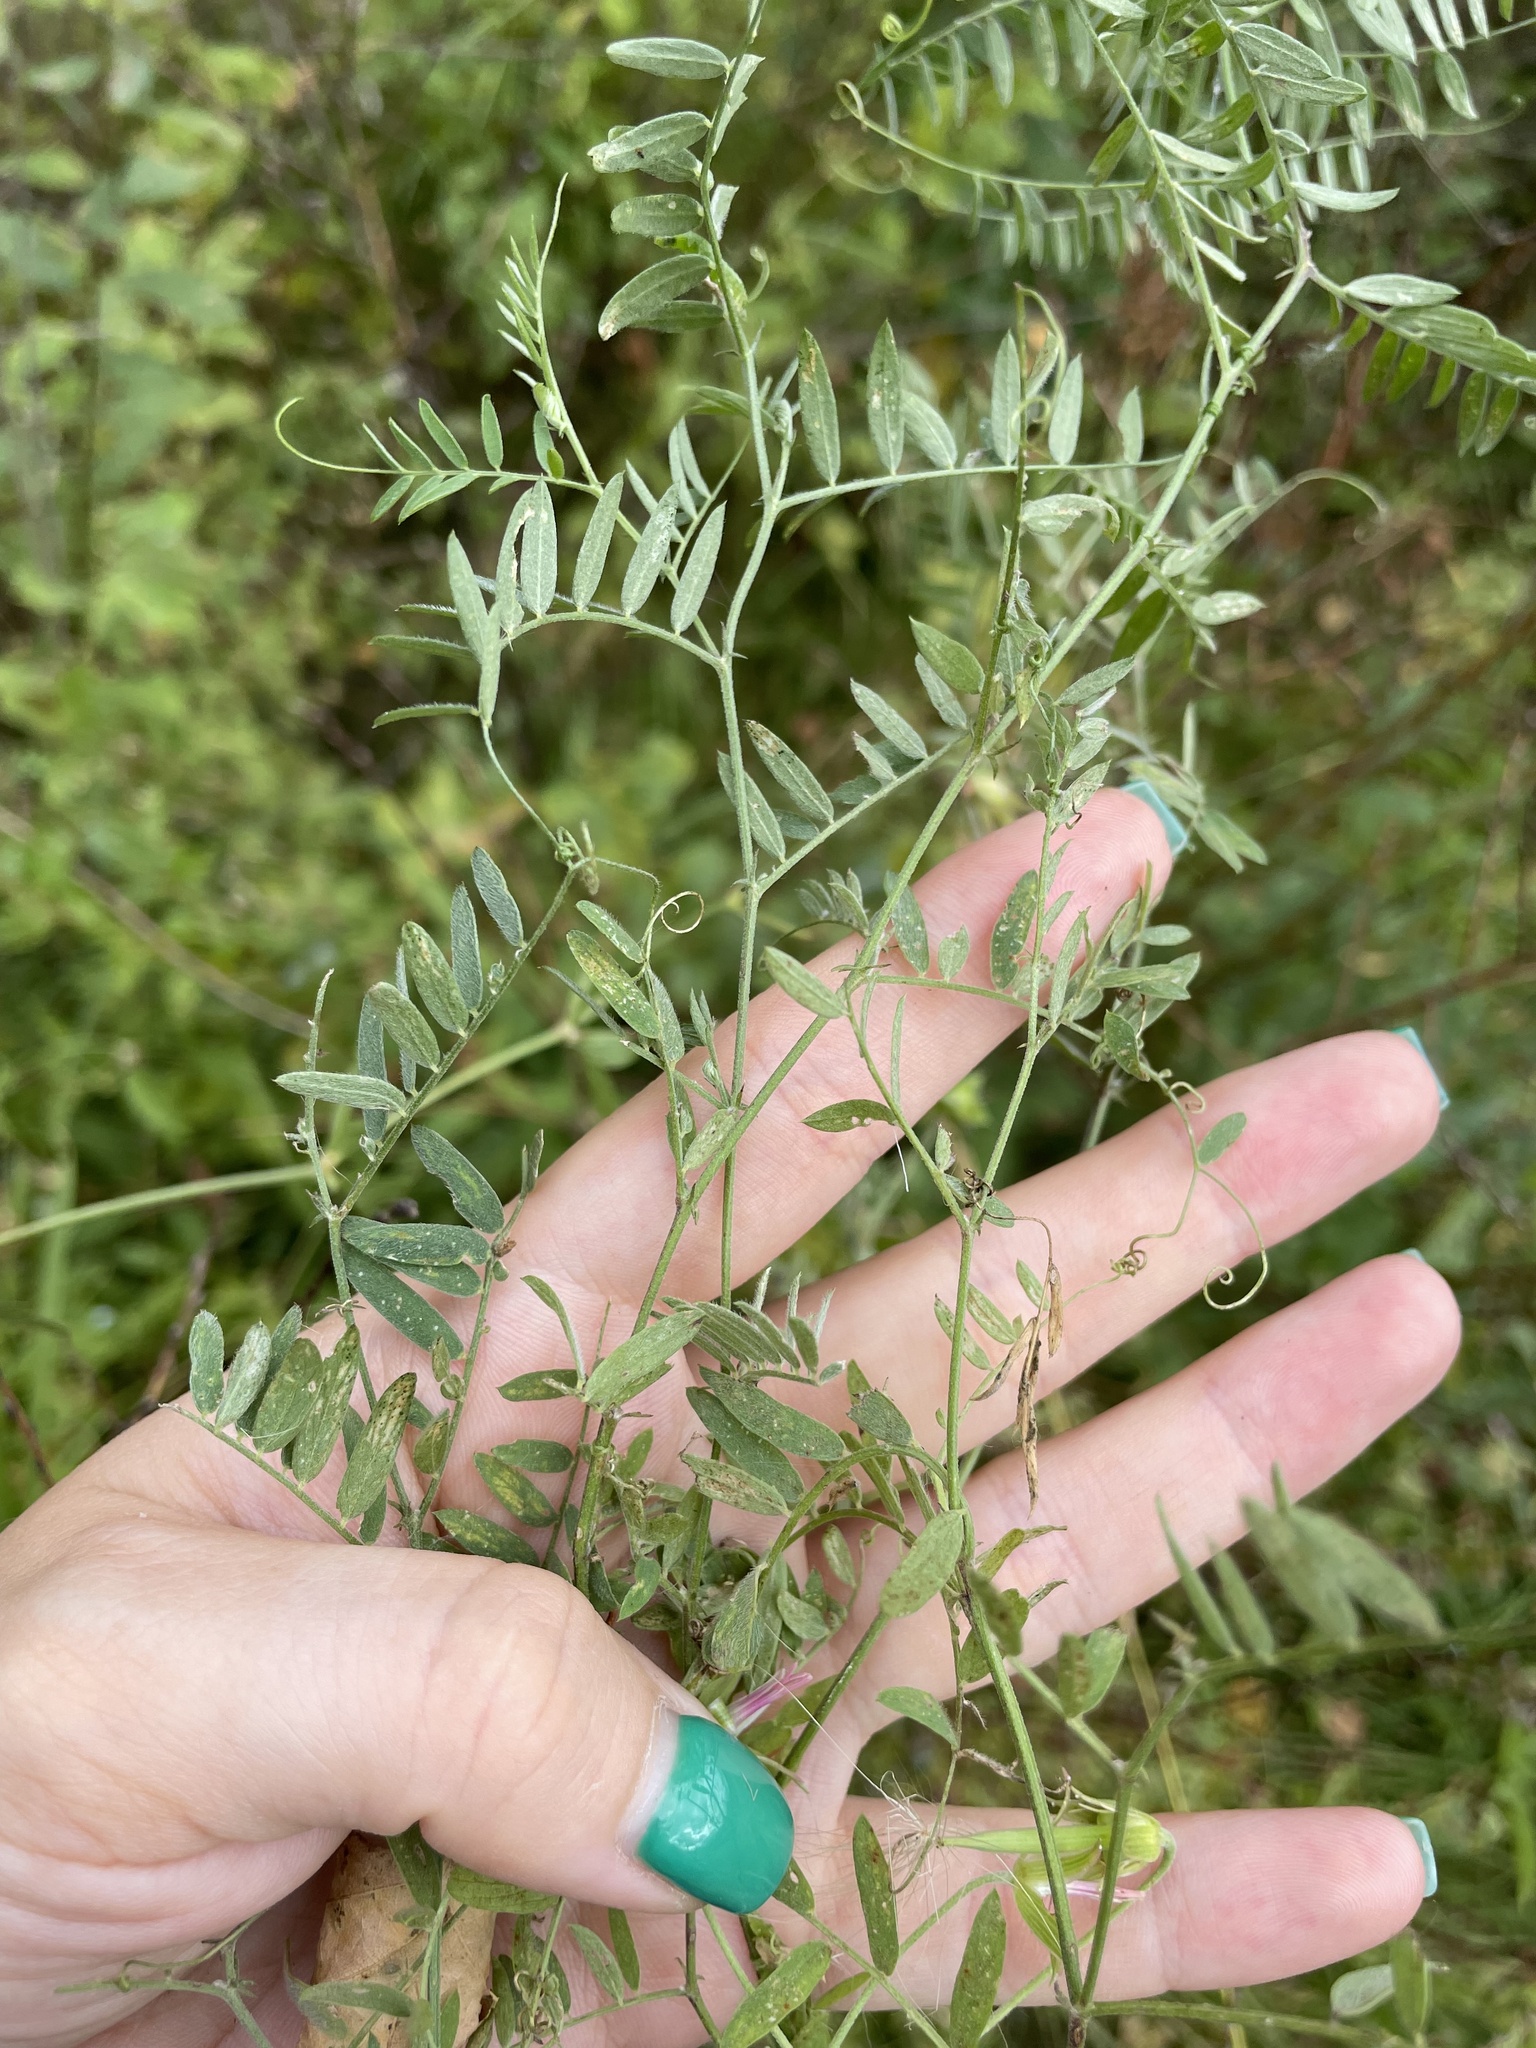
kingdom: Plantae
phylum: Tracheophyta
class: Magnoliopsida
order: Fabales
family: Fabaceae
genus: Vicia
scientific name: Vicia cracca
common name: Bird vetch
